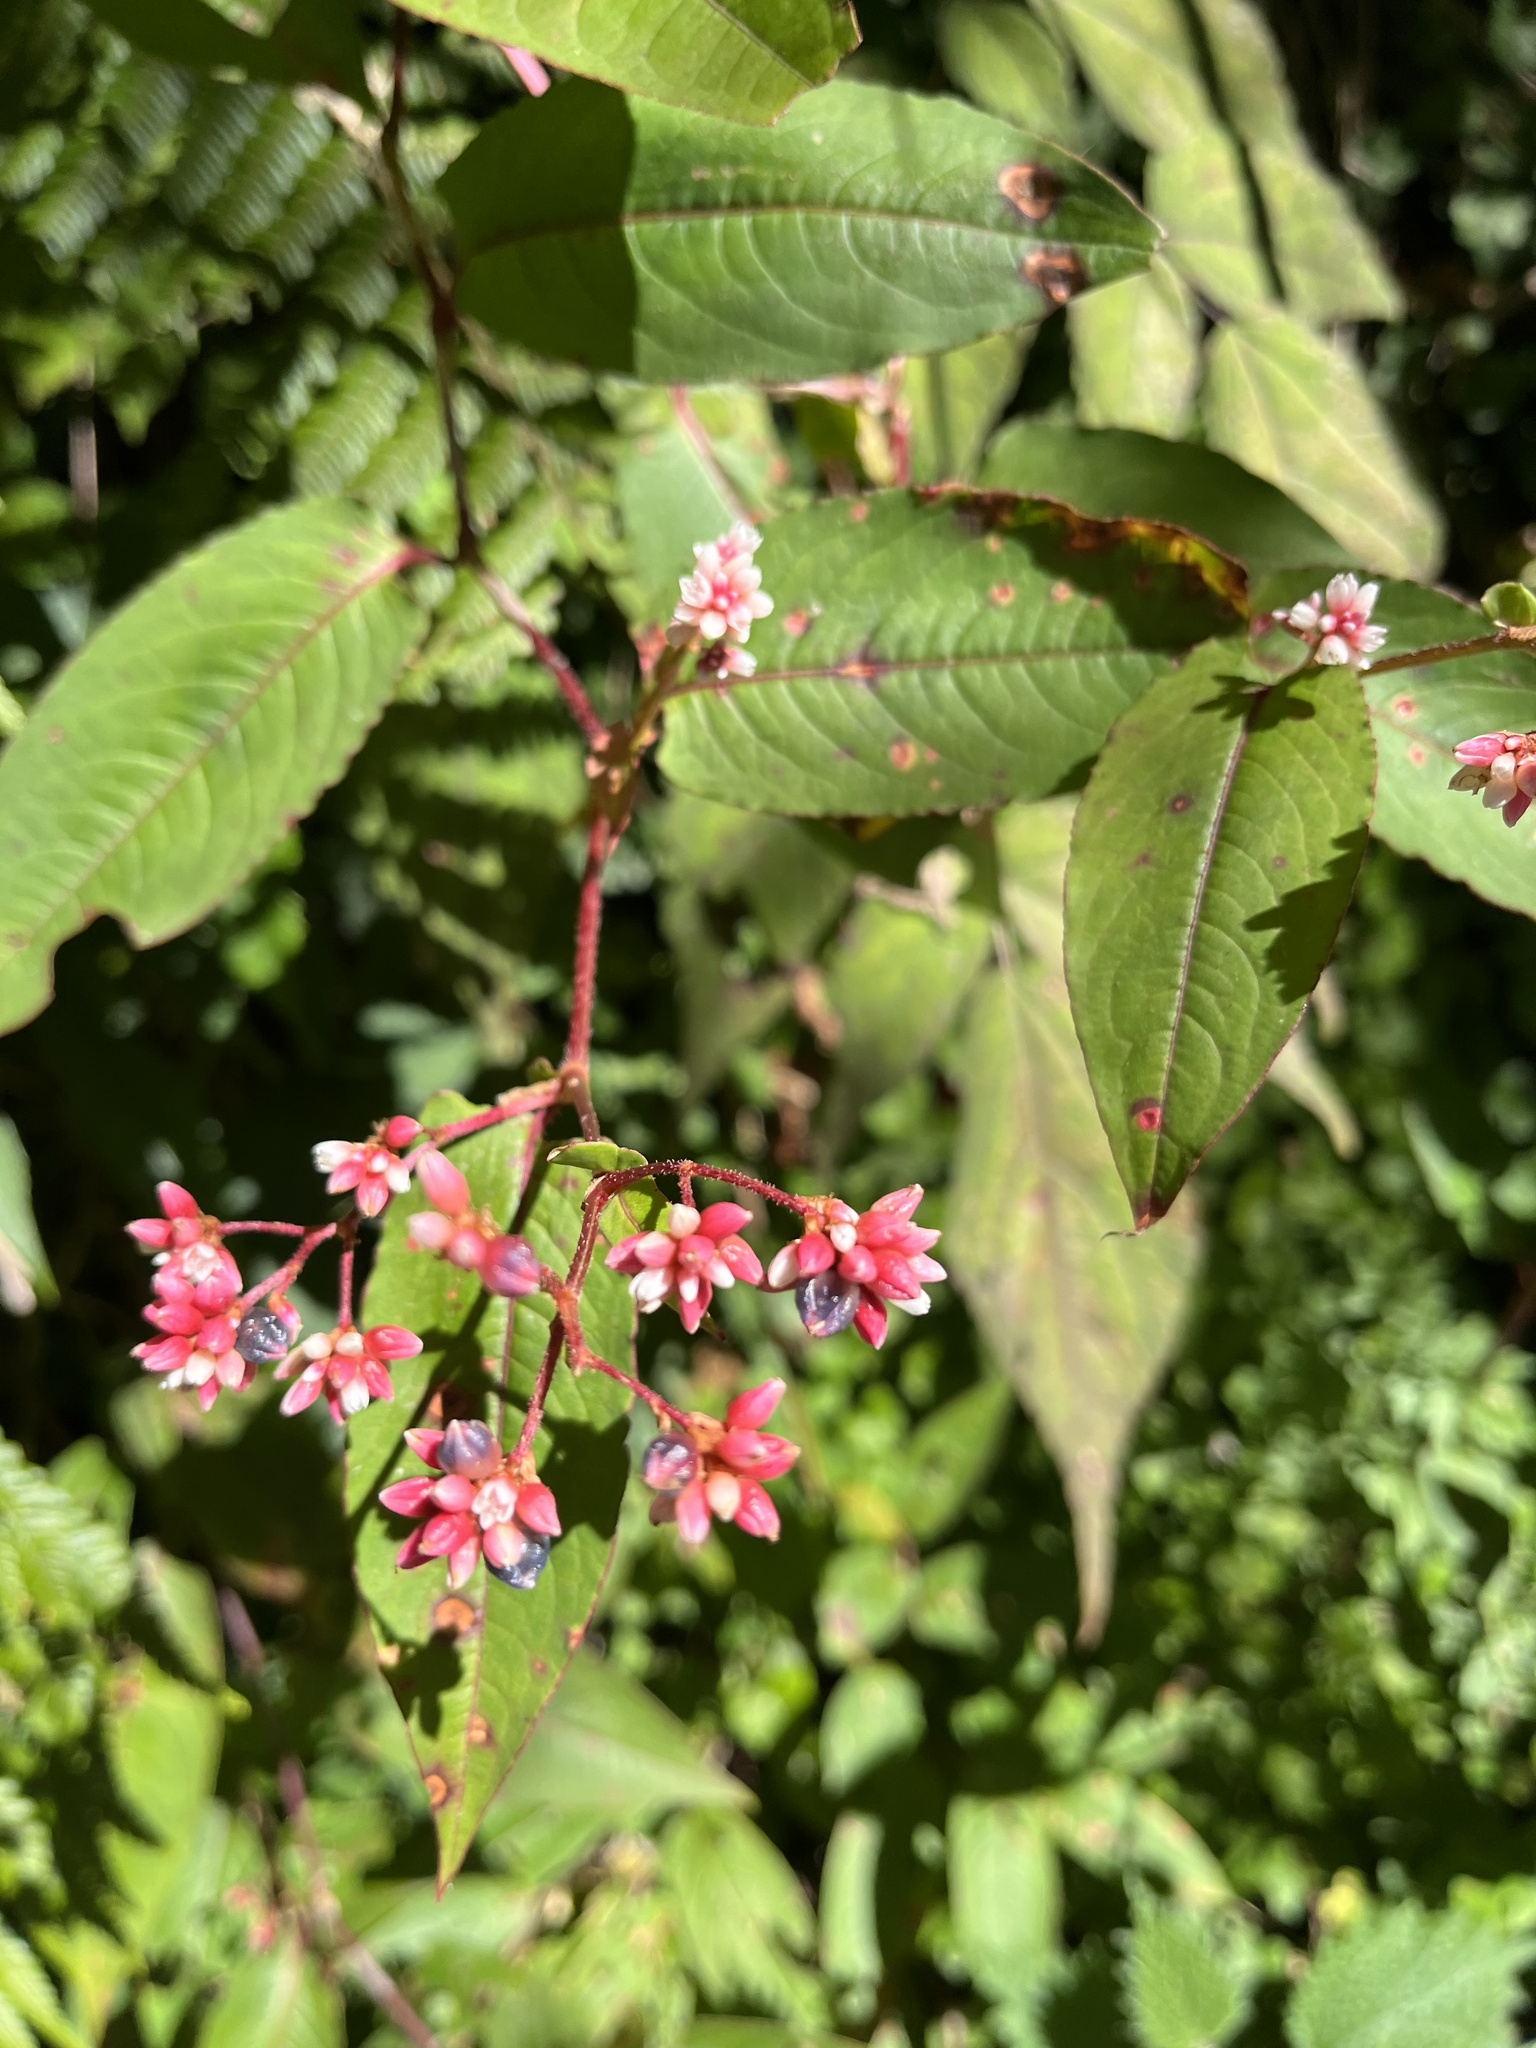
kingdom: Plantae
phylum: Tracheophyta
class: Magnoliopsida
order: Caryophyllales
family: Polygonaceae
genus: Persicaria
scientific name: Persicaria chinensis
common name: Chinese knotweed
